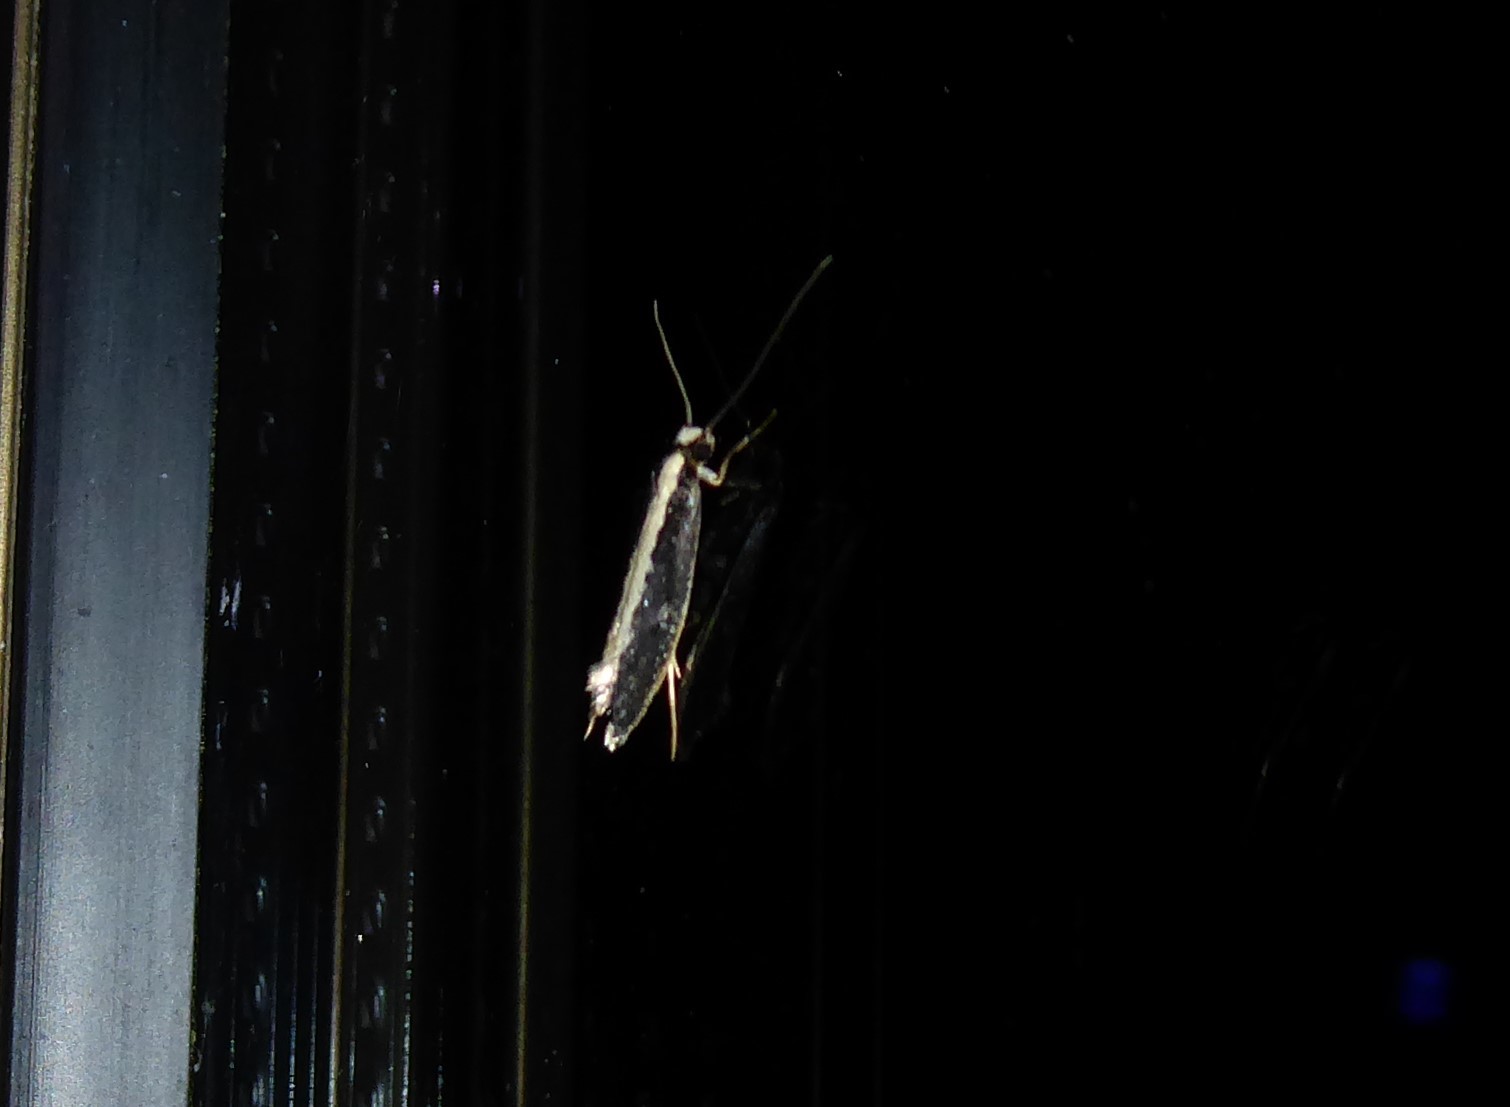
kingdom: Animalia
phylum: Arthropoda
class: Insecta
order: Lepidoptera
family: Tineidae
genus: Monopis
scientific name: Monopis ethelella
